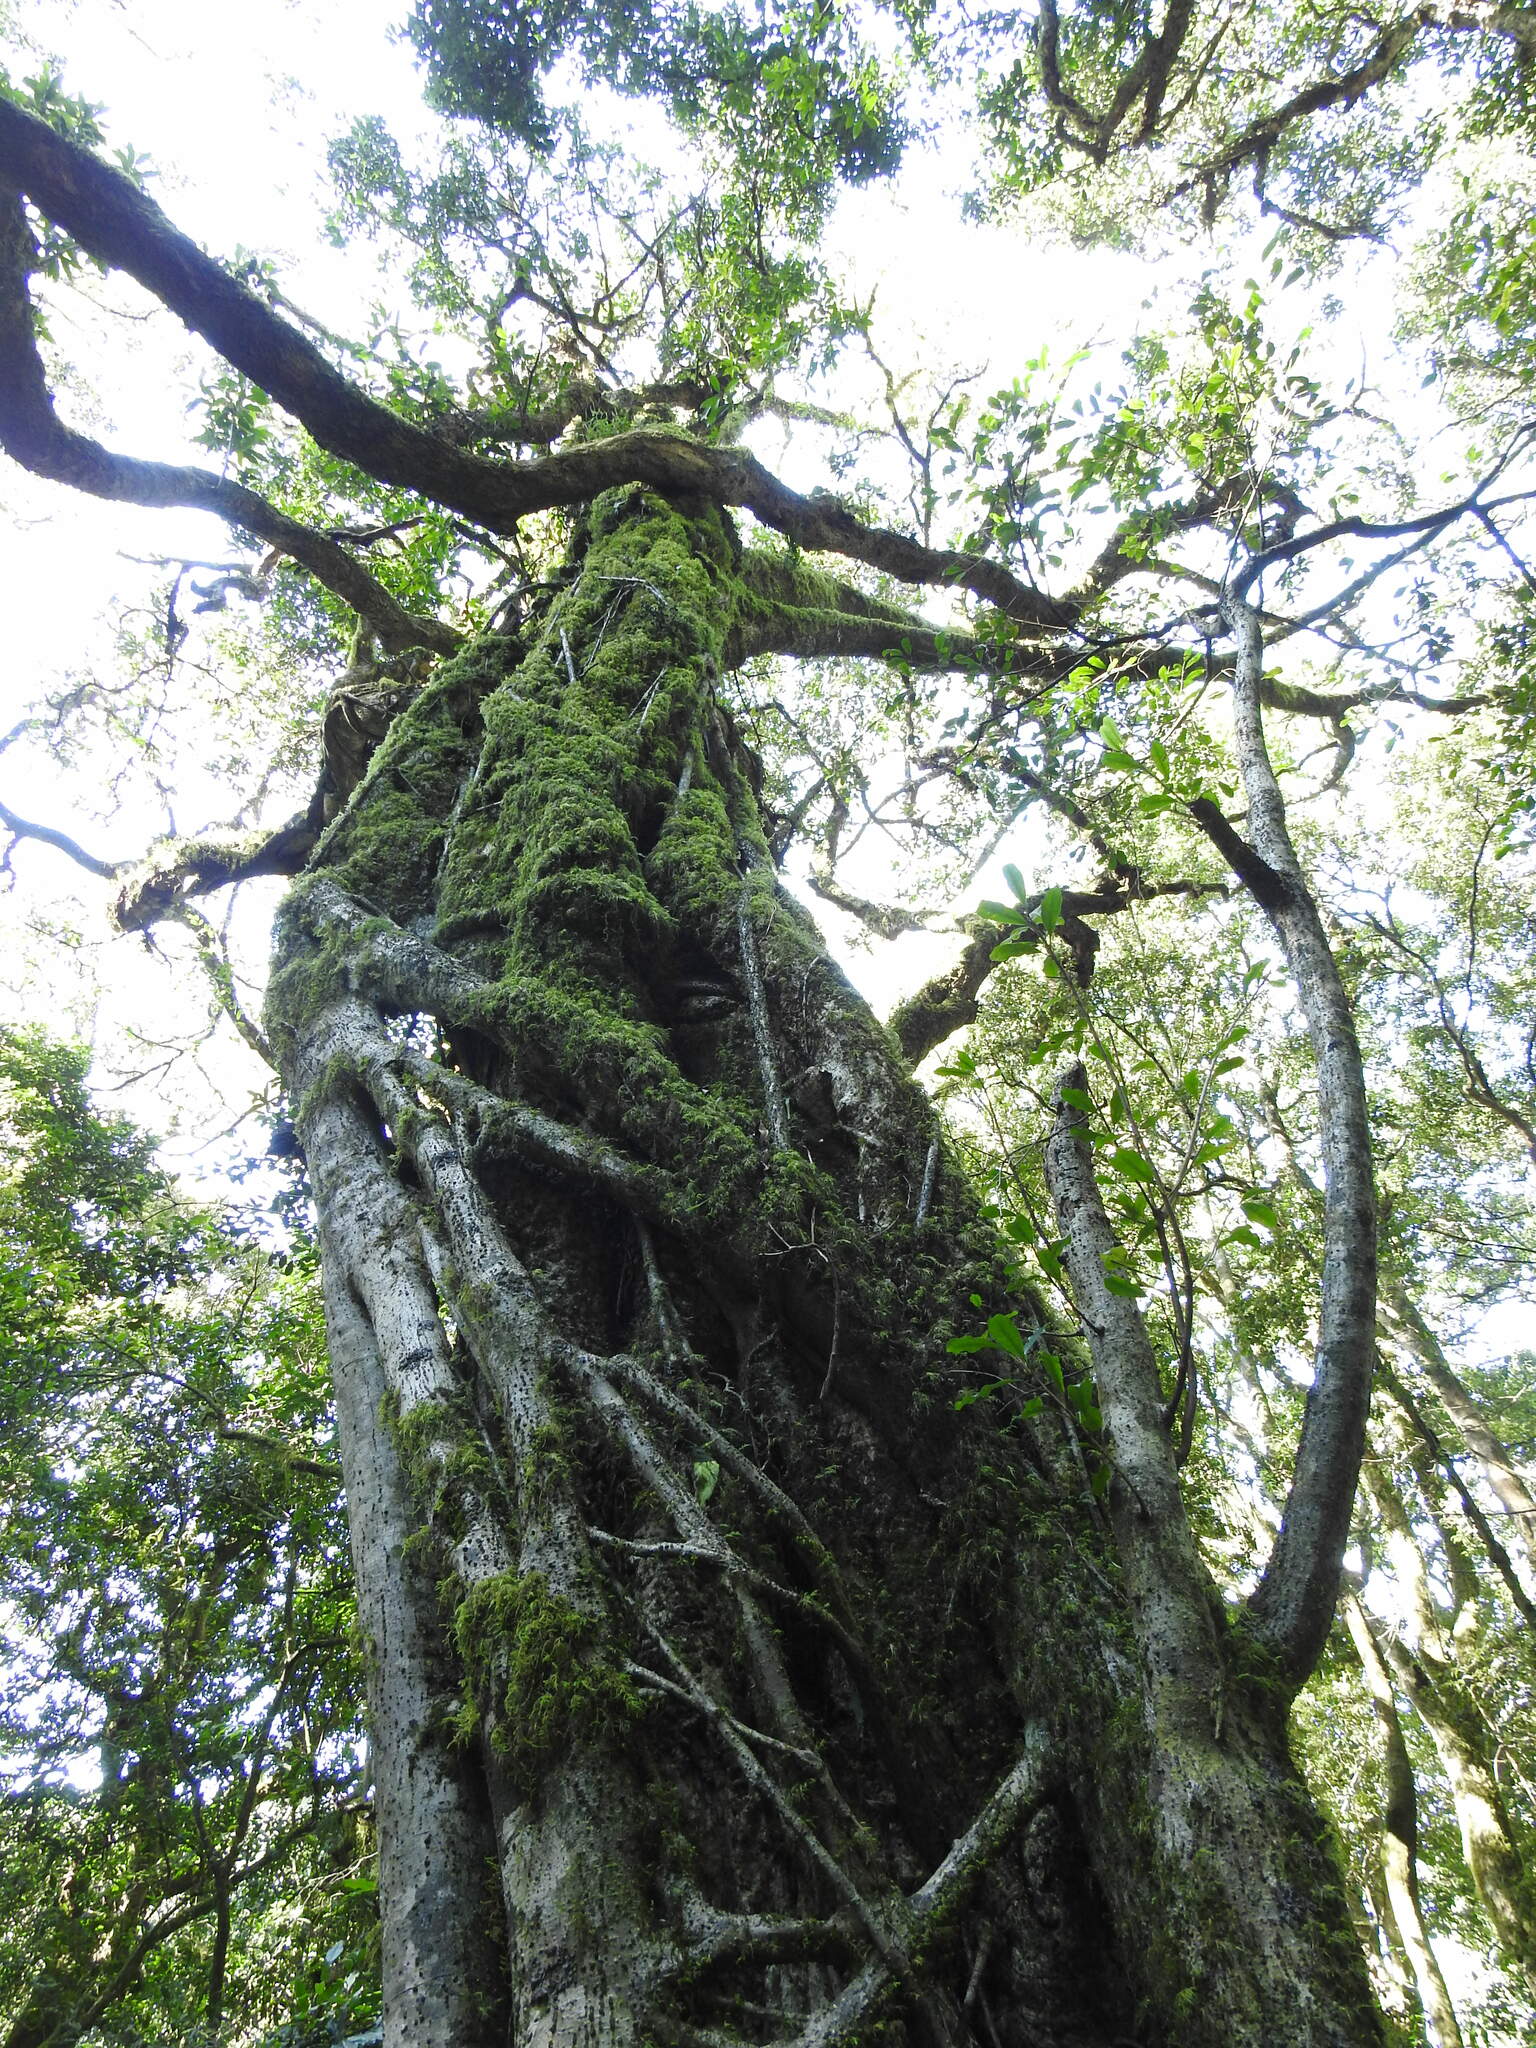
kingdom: Plantae
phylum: Tracheophyta
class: Magnoliopsida
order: Rosales
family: Moraceae
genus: Ficus
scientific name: Ficus craterostoma
